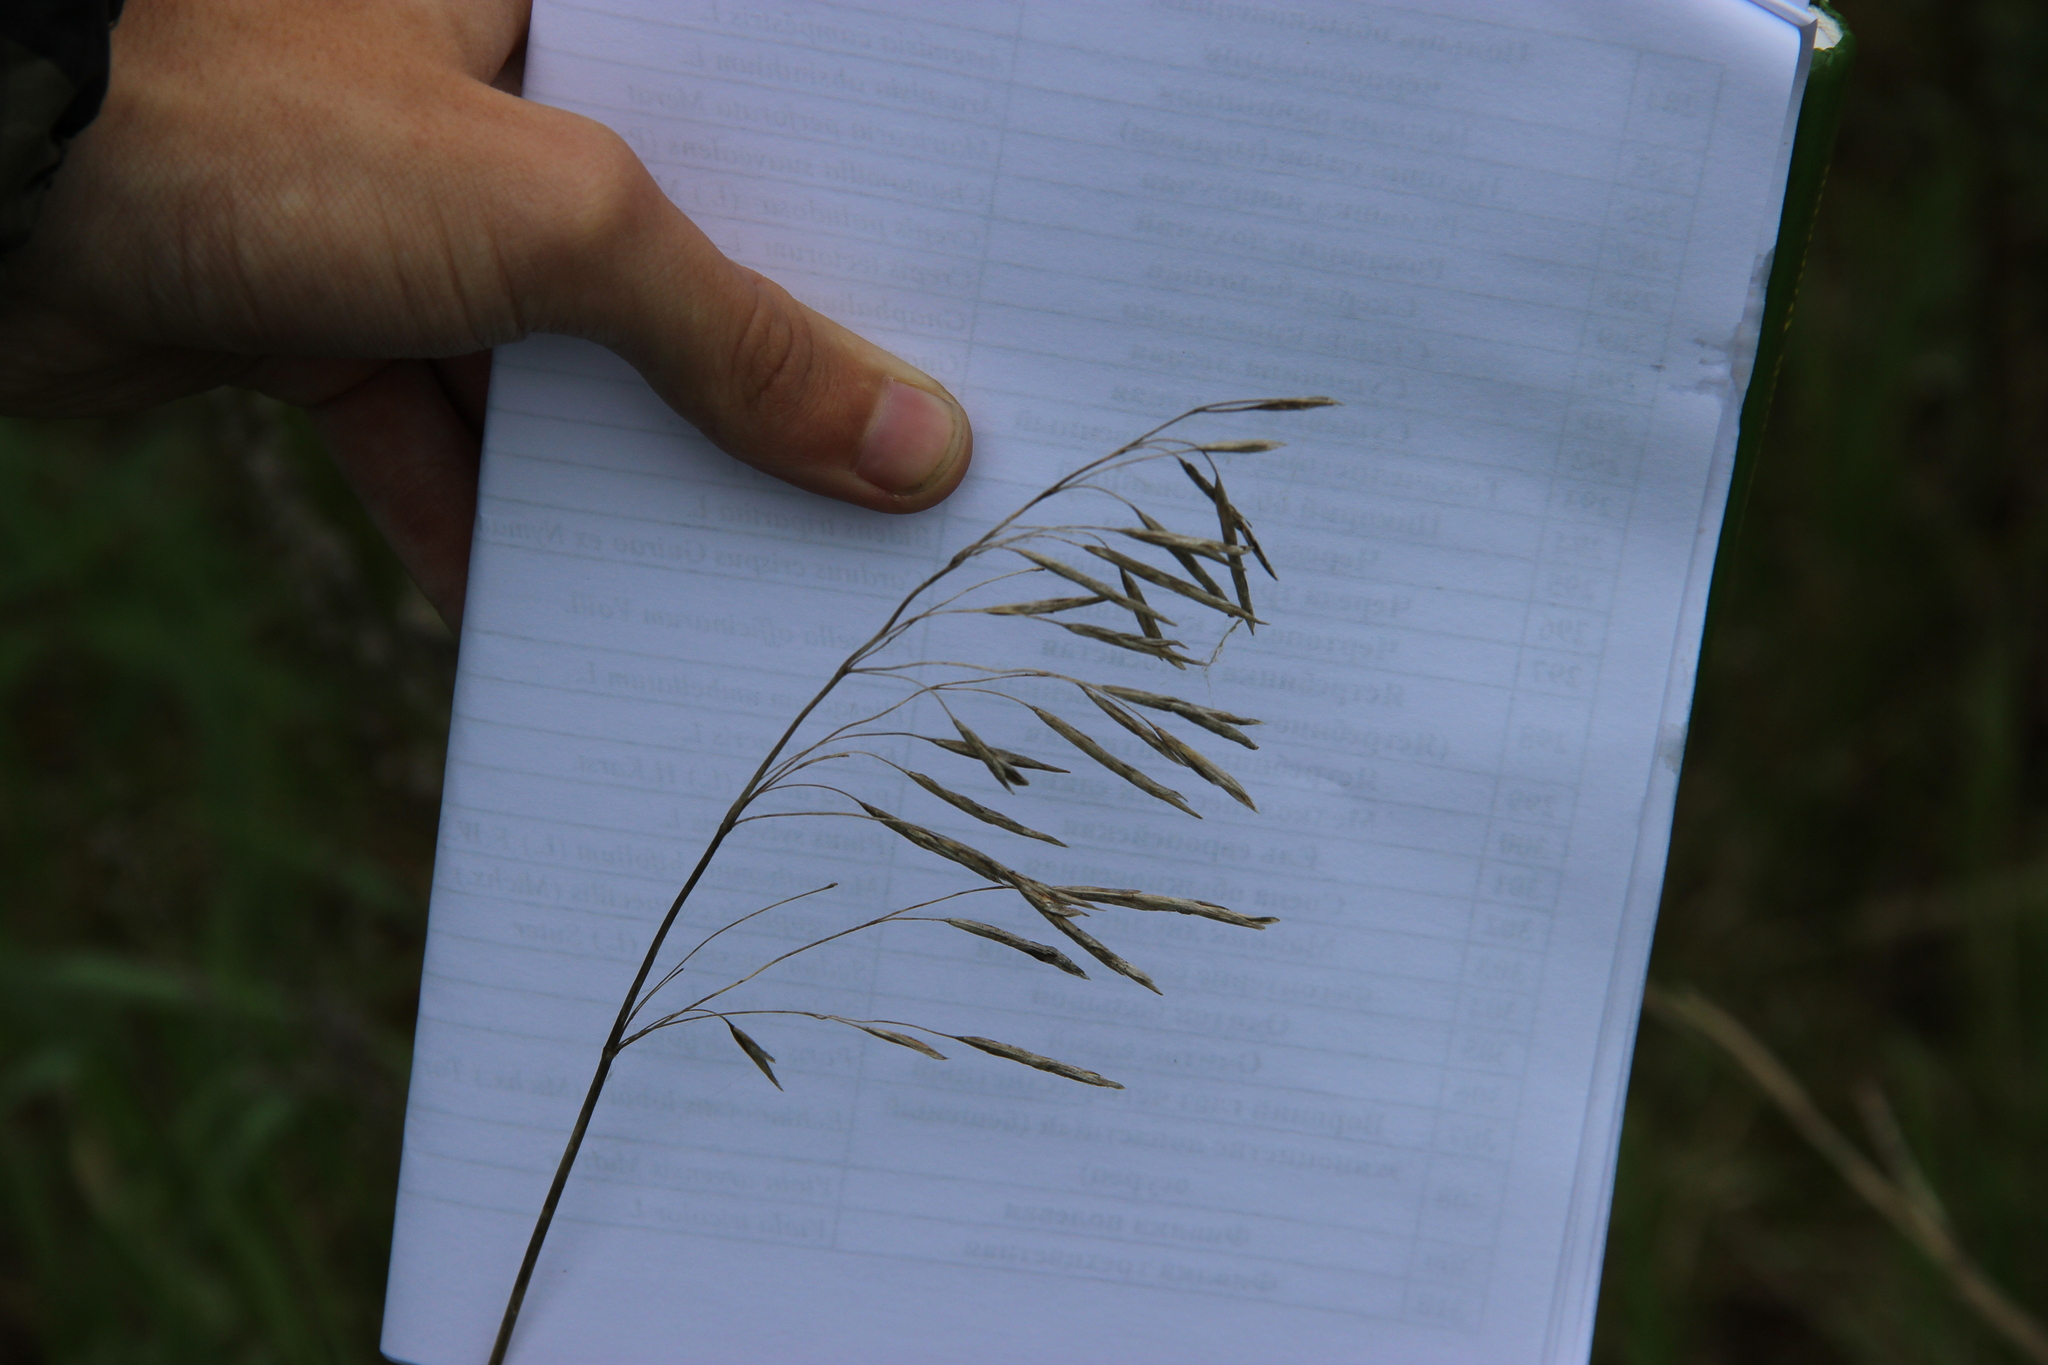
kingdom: Plantae
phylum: Tracheophyta
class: Liliopsida
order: Poales
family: Poaceae
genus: Bromus
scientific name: Bromus inermis
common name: Smooth brome
